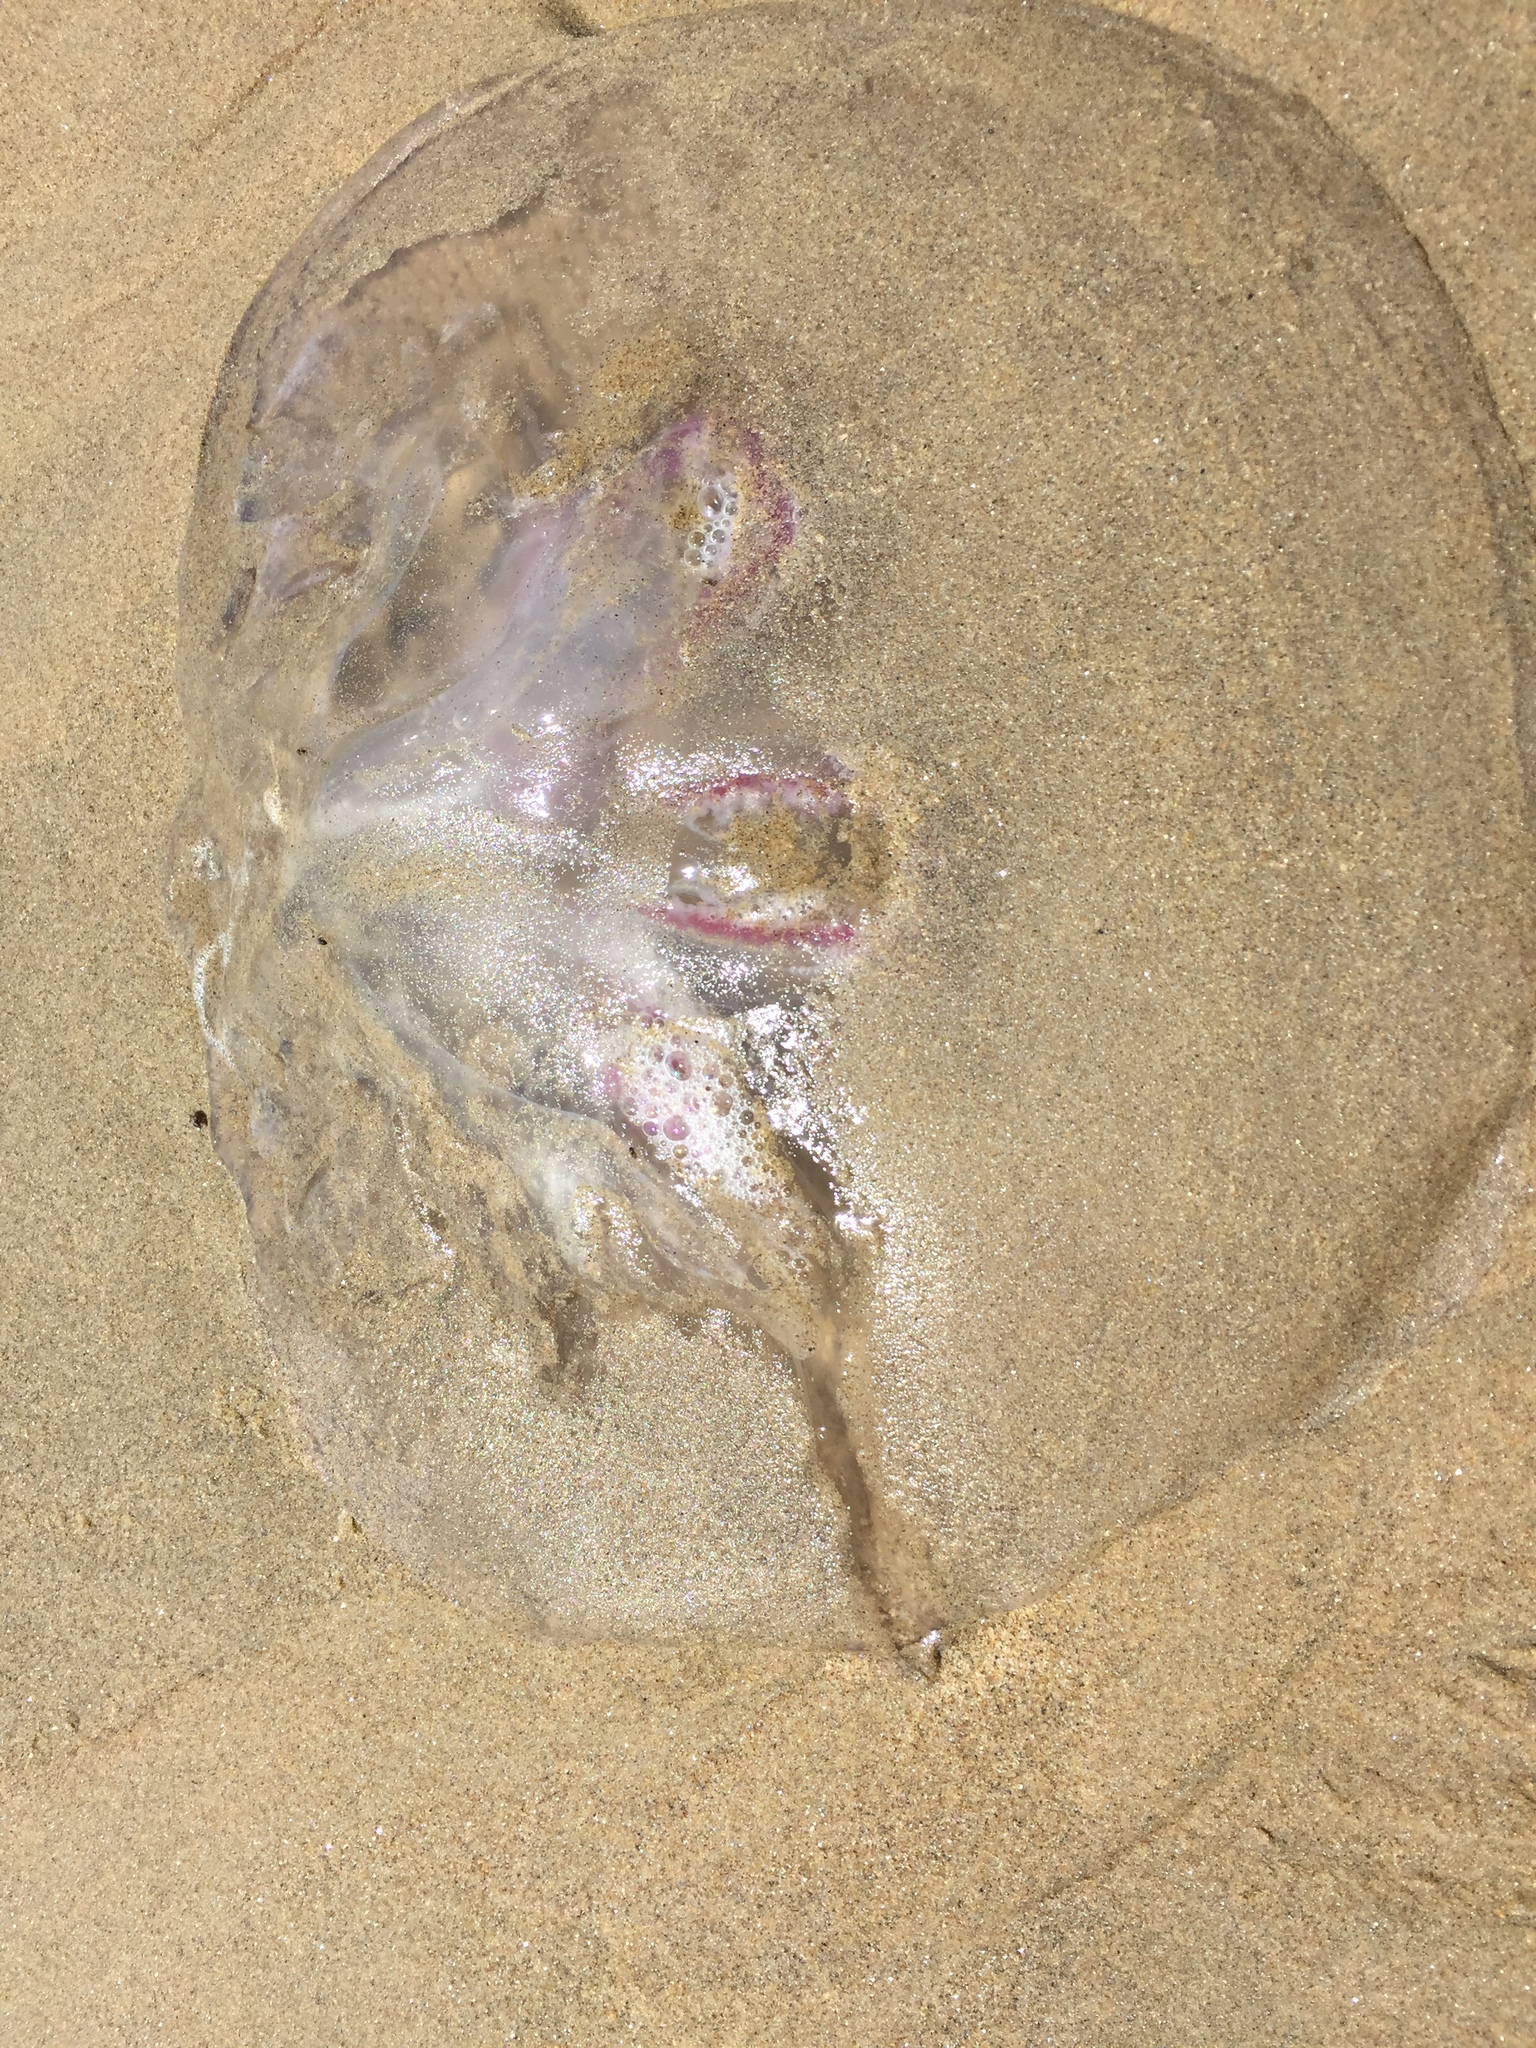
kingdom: Animalia
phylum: Cnidaria
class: Scyphozoa
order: Semaeostomeae
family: Ulmaridae
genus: Aurelia
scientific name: Aurelia labiata
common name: Pacific moon jelly
